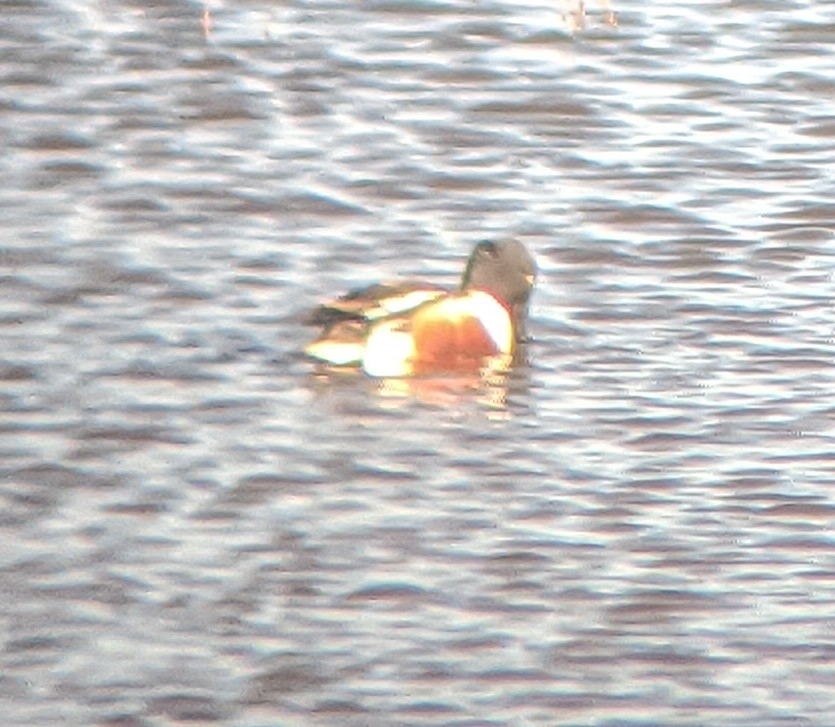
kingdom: Animalia
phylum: Chordata
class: Aves
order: Anseriformes
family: Anatidae
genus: Spatula
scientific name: Spatula clypeata
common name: Northern shoveler
